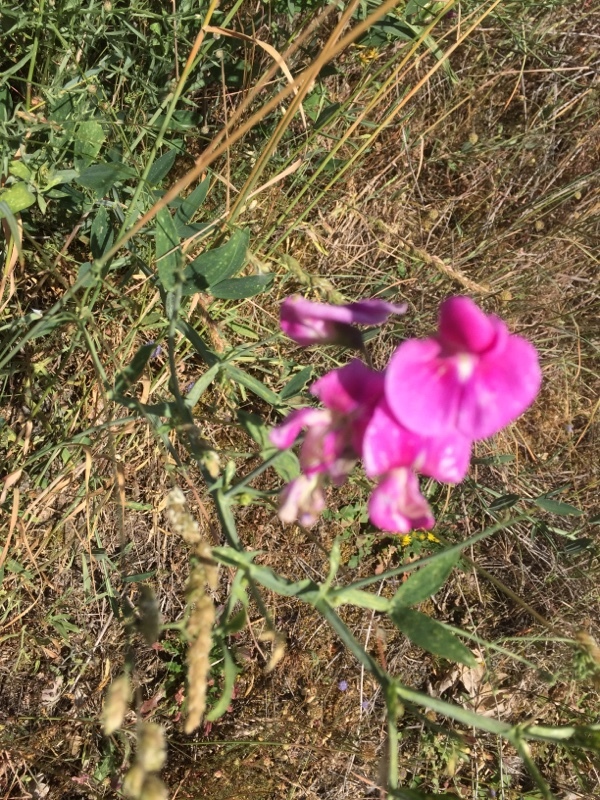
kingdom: Plantae
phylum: Tracheophyta
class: Magnoliopsida
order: Fabales
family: Fabaceae
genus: Lathyrus
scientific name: Lathyrus latifolius
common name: Perennial pea
